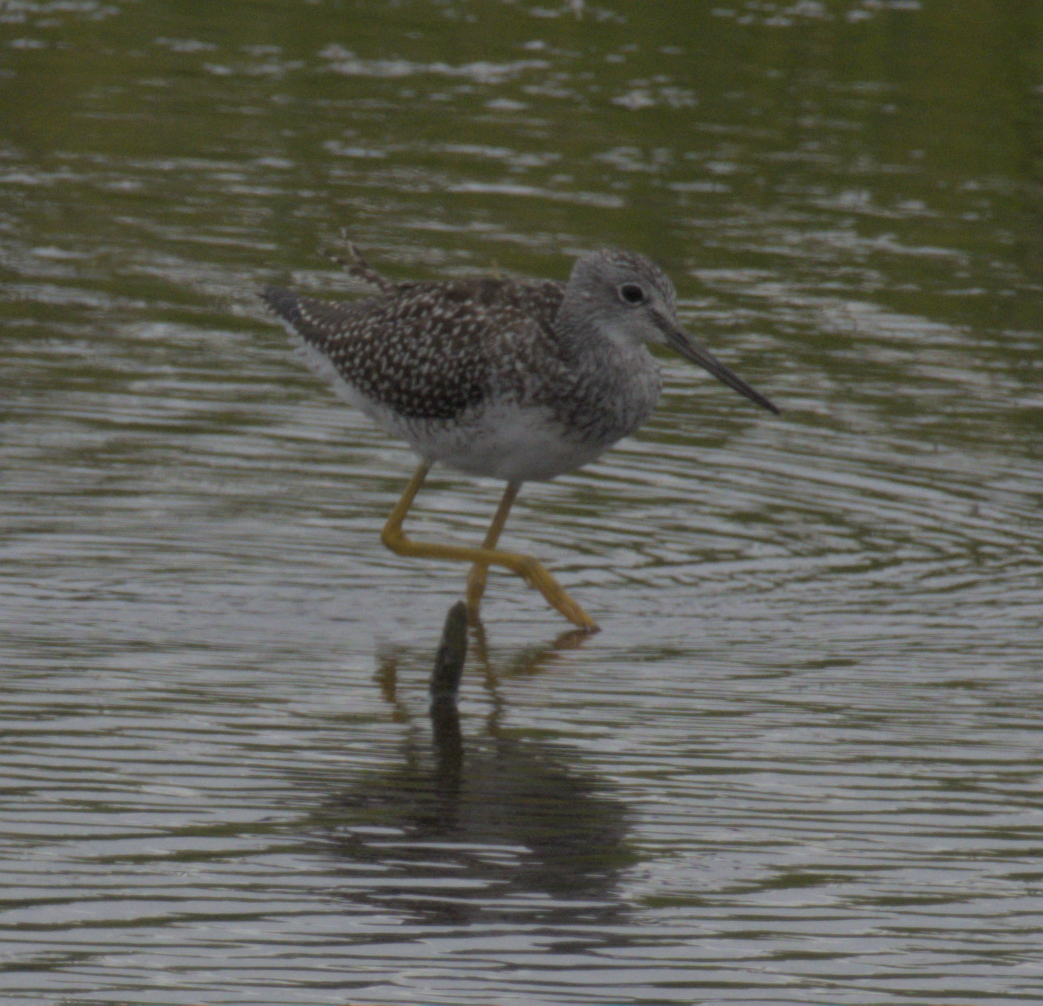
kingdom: Animalia
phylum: Chordata
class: Aves
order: Charadriiformes
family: Scolopacidae
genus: Tringa
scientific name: Tringa melanoleuca
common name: Greater yellowlegs
